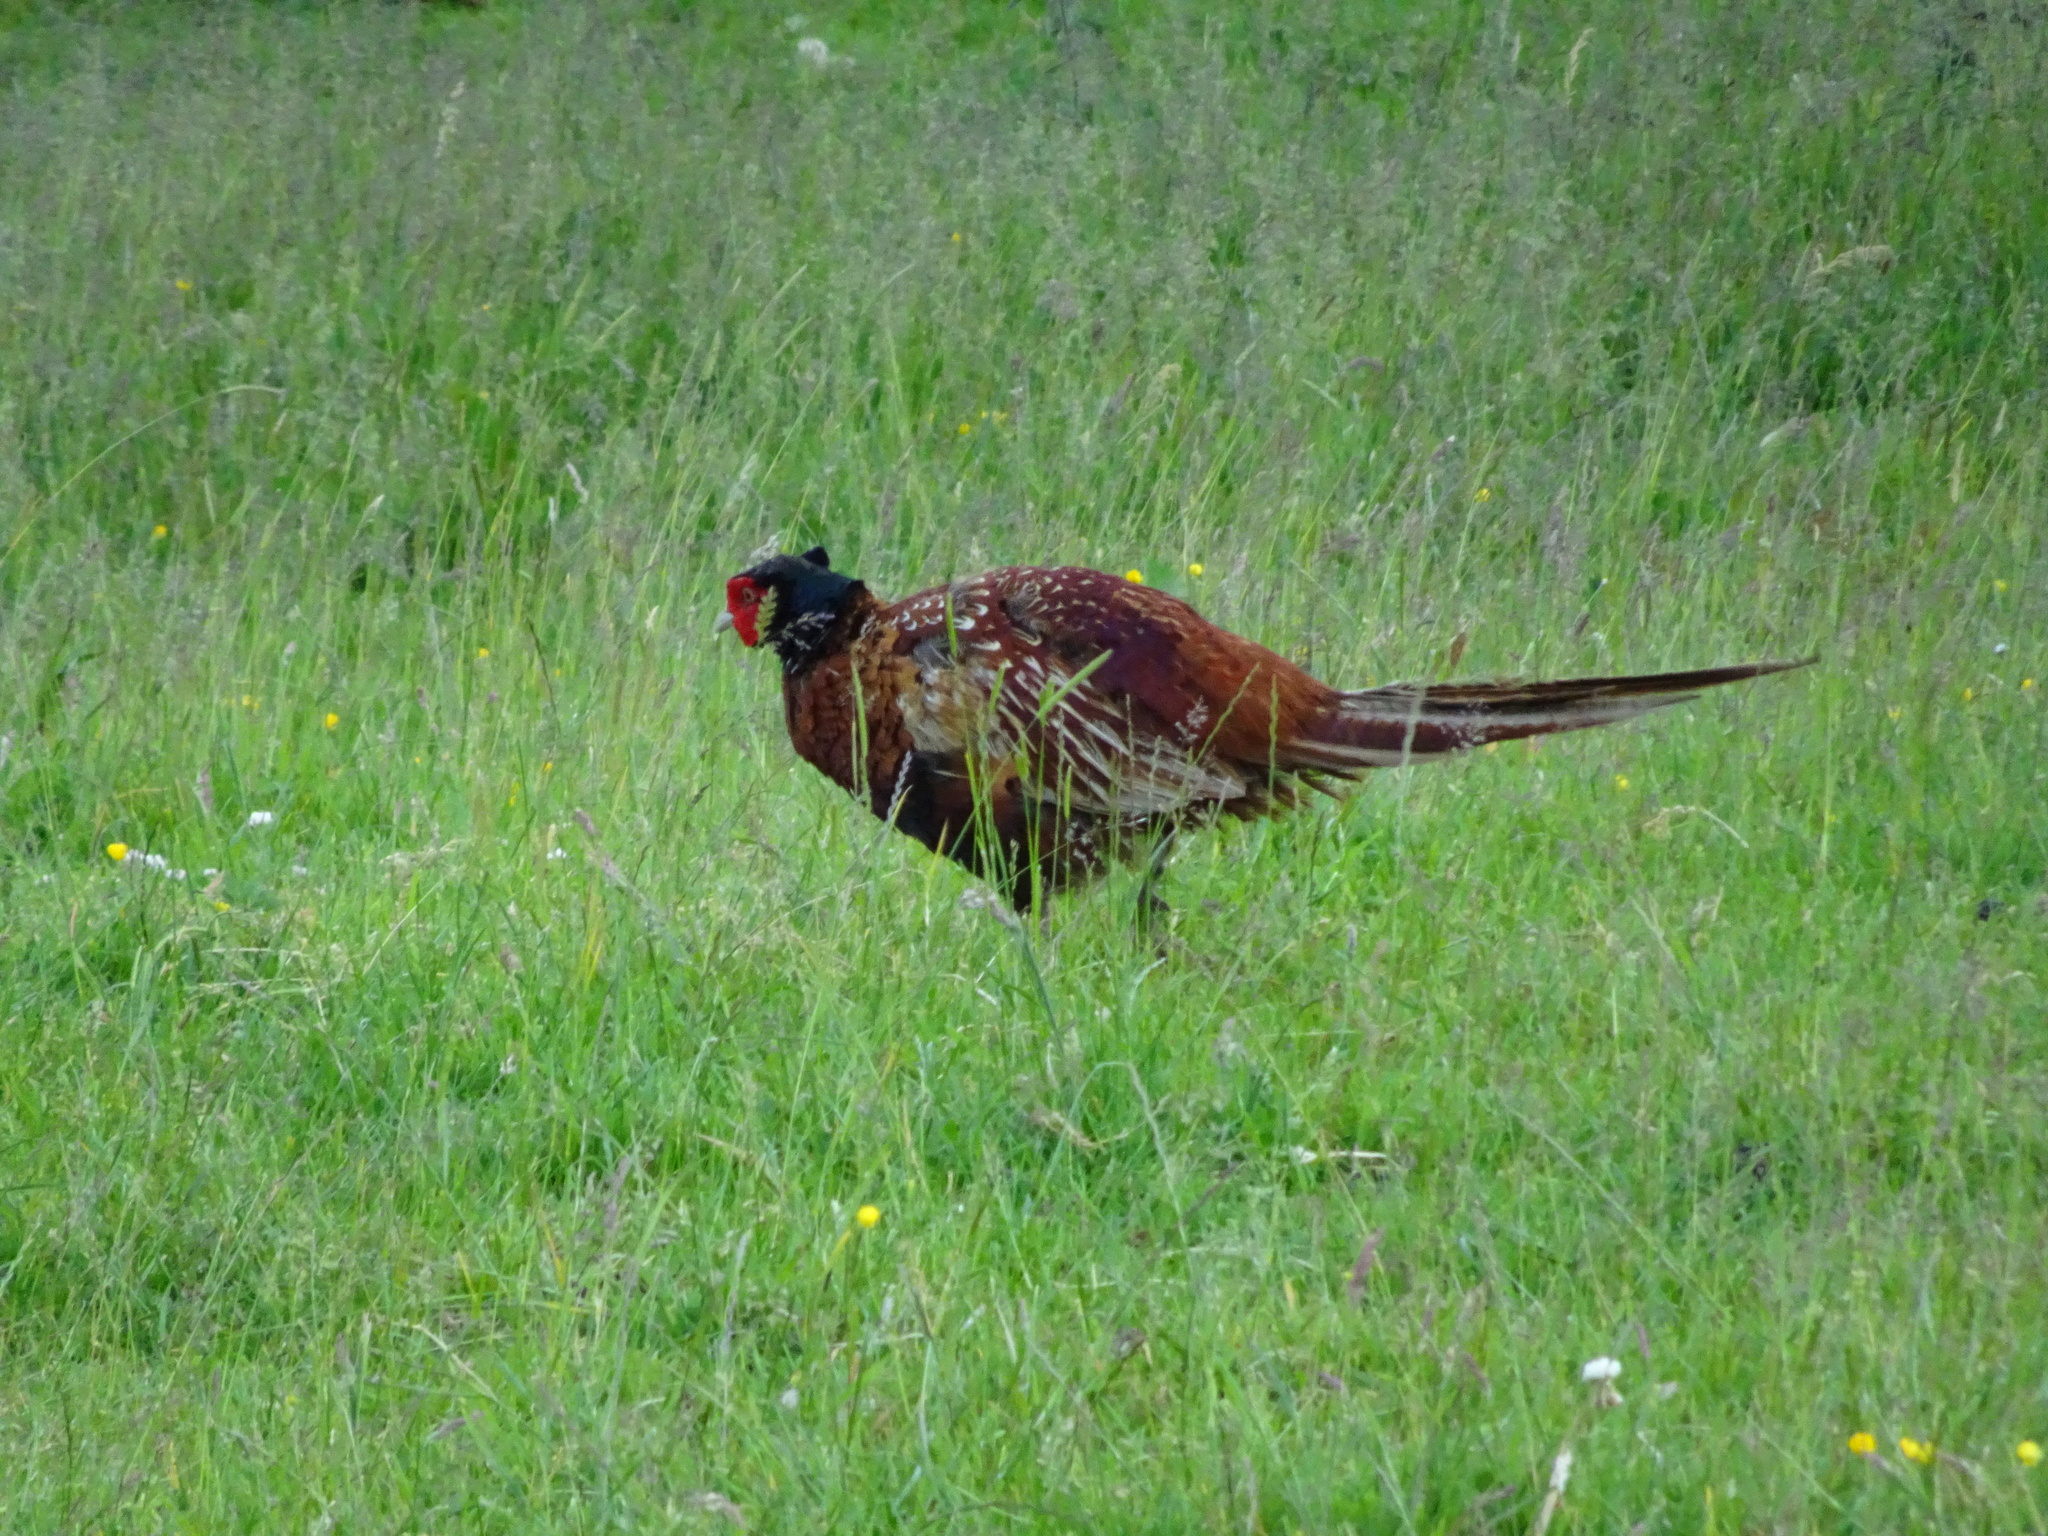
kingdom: Animalia
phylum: Chordata
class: Aves
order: Galliformes
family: Phasianidae
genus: Phasianus
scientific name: Phasianus colchicus
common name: Common pheasant
